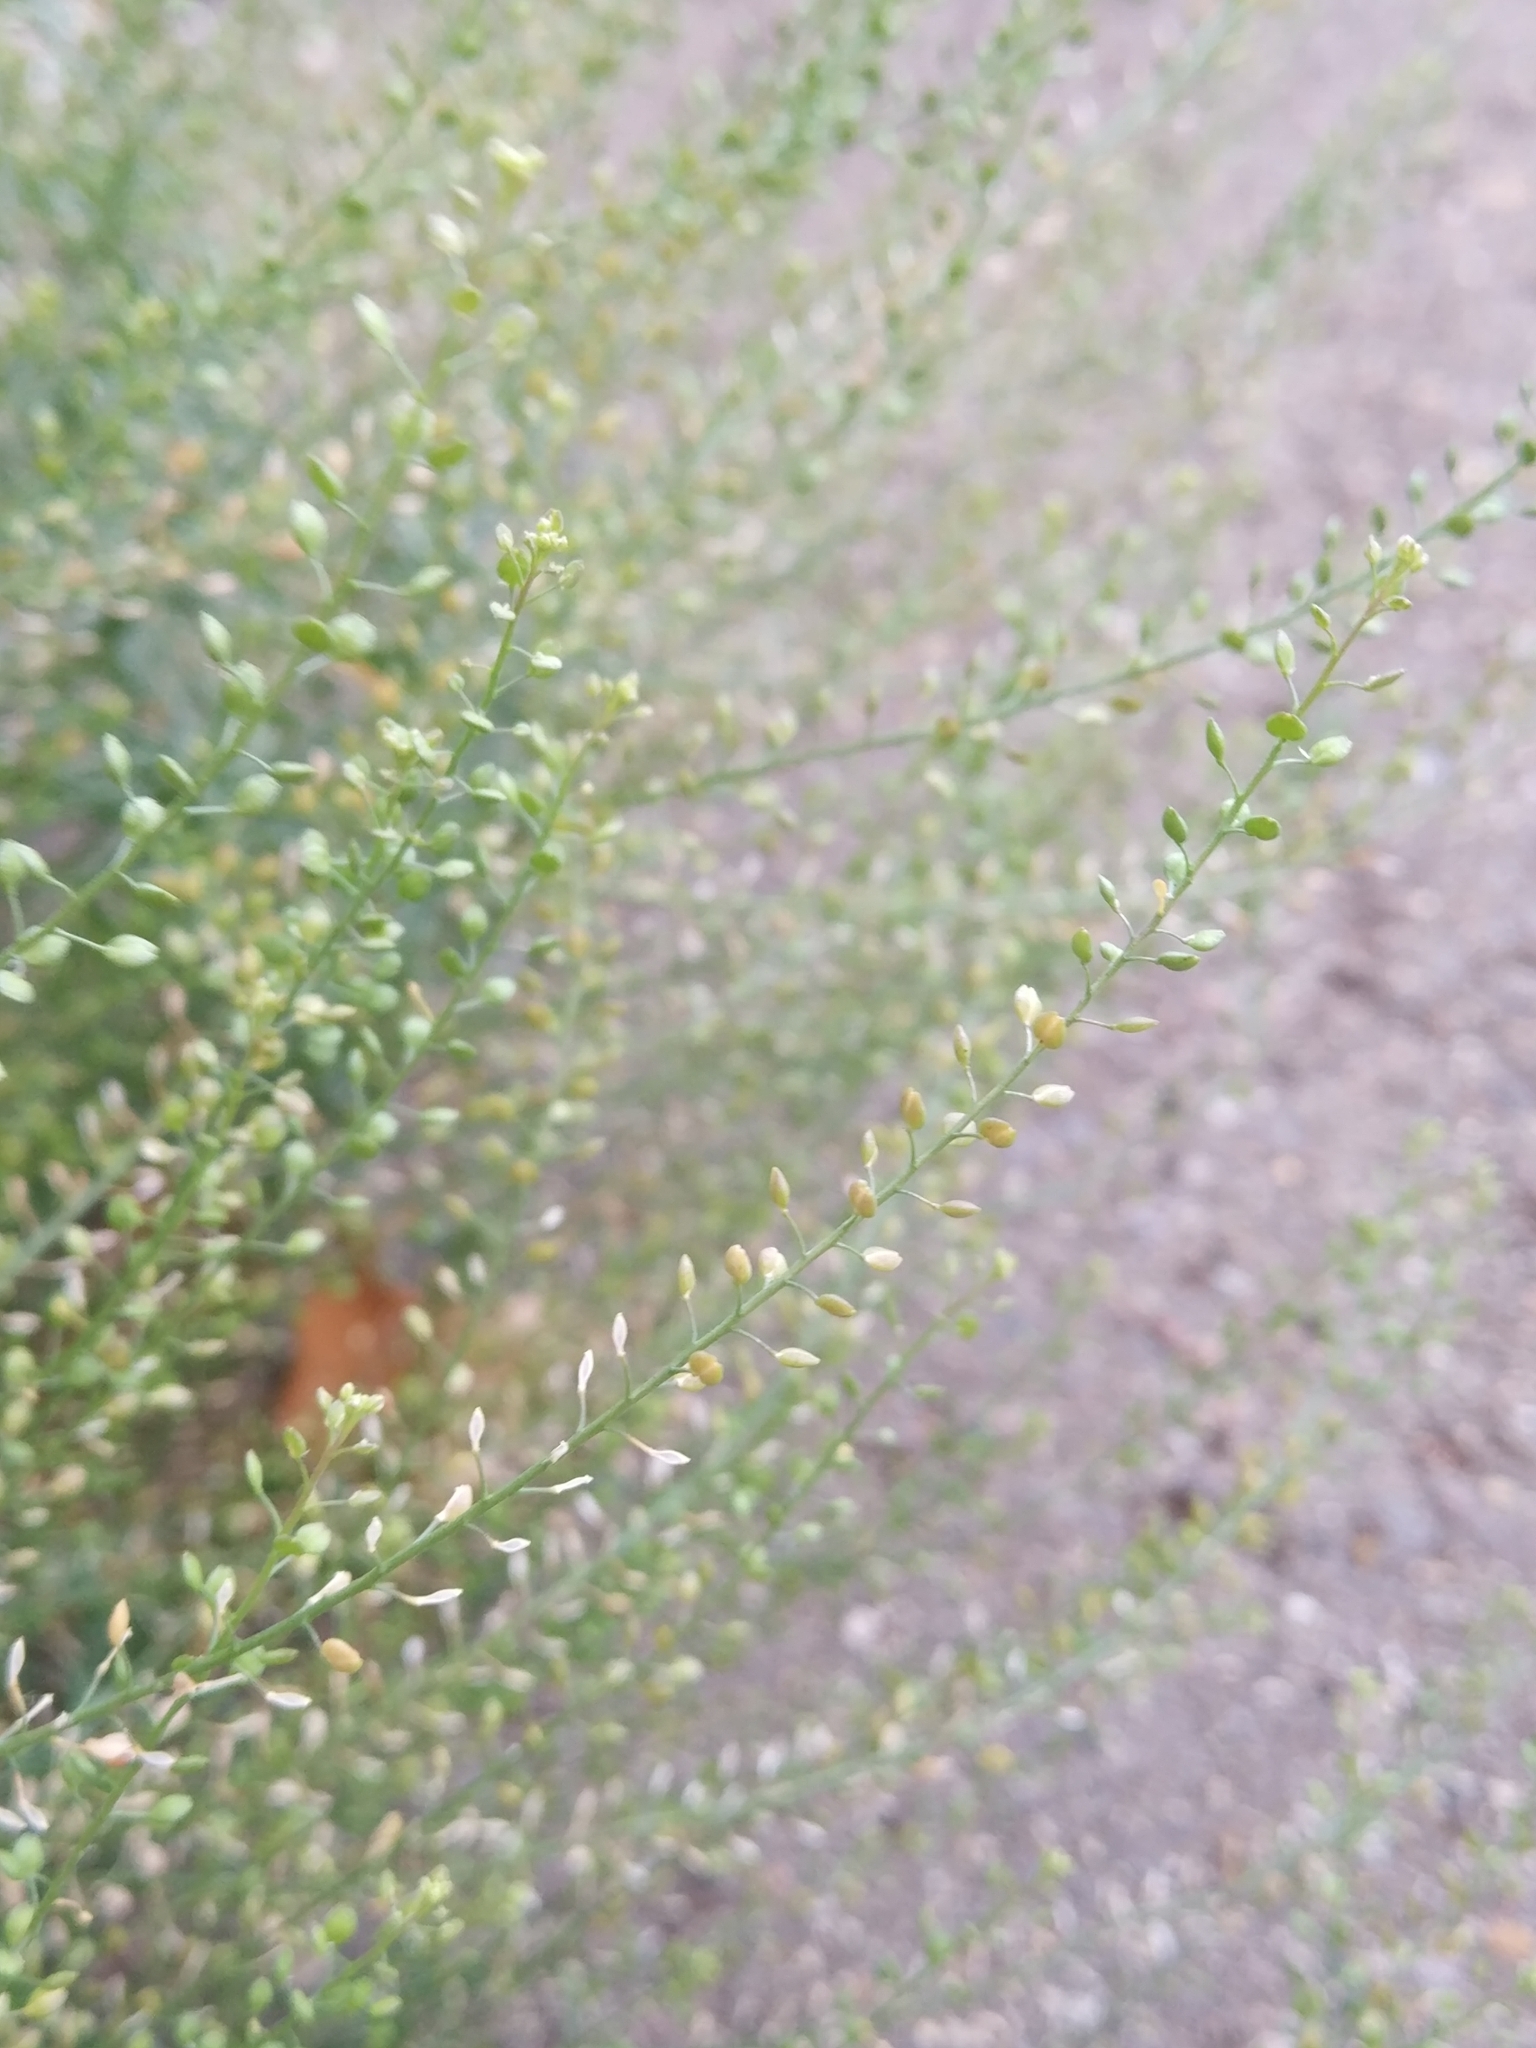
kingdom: Plantae
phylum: Tracheophyta
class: Magnoliopsida
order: Brassicales
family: Brassicaceae
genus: Lepidium
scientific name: Lepidium ruderale
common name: Narrow-leaved pepperwort
